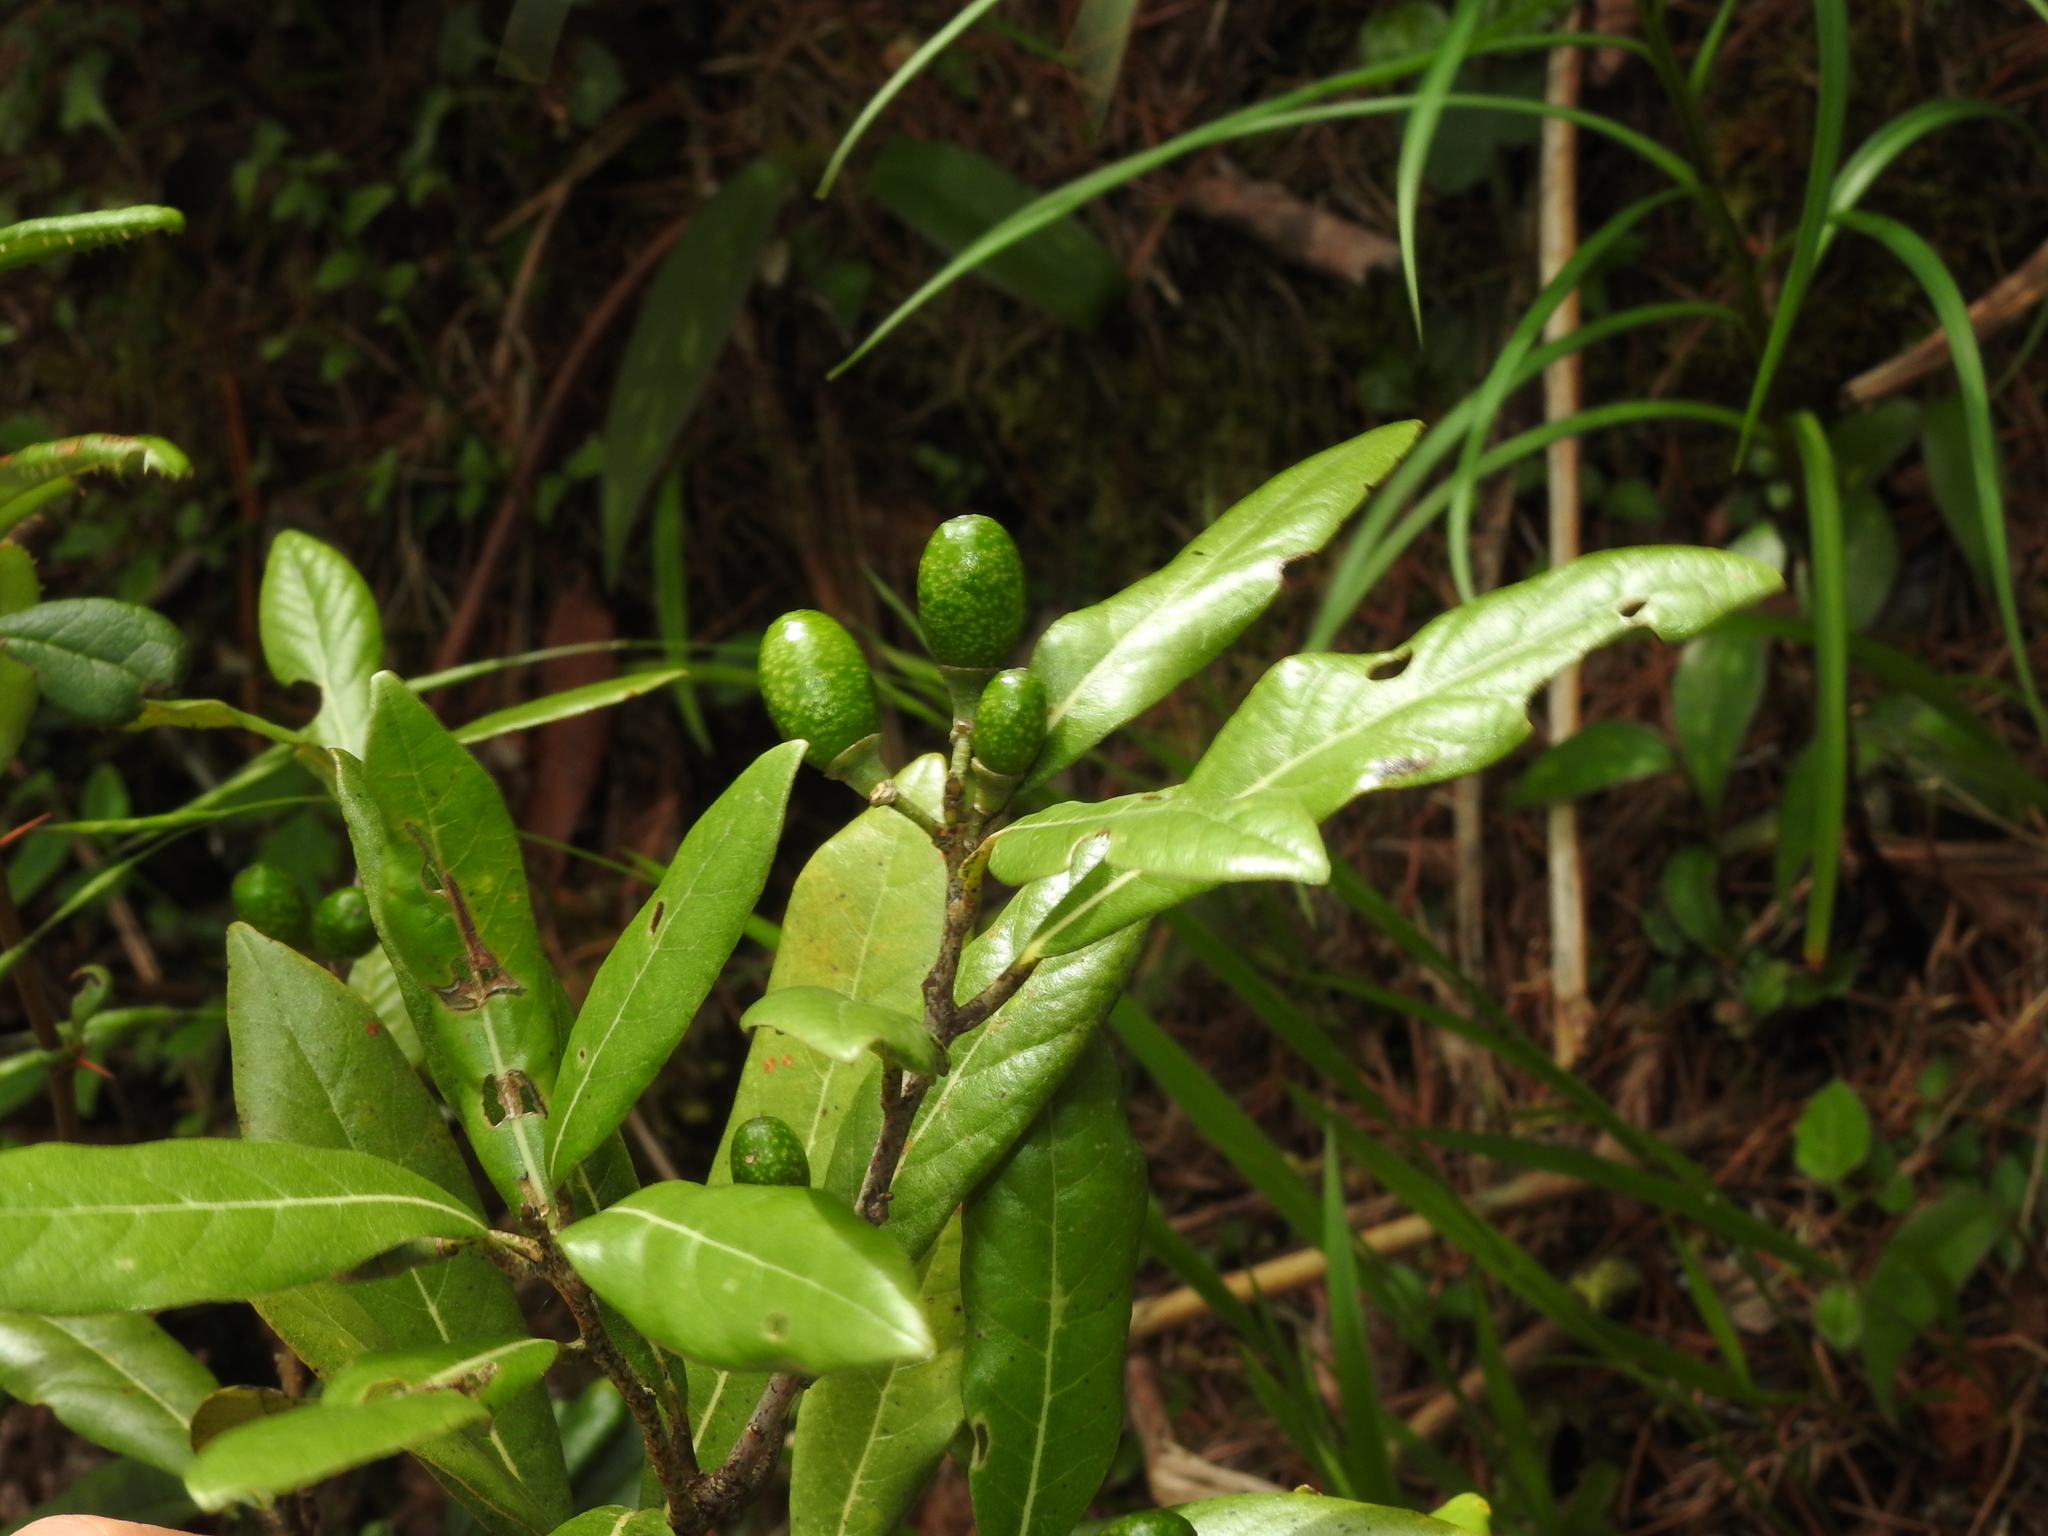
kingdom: Plantae
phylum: Tracheophyta
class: Magnoliopsida
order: Laurales
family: Lauraceae
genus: Litsea
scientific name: Litsea morrisonensis
